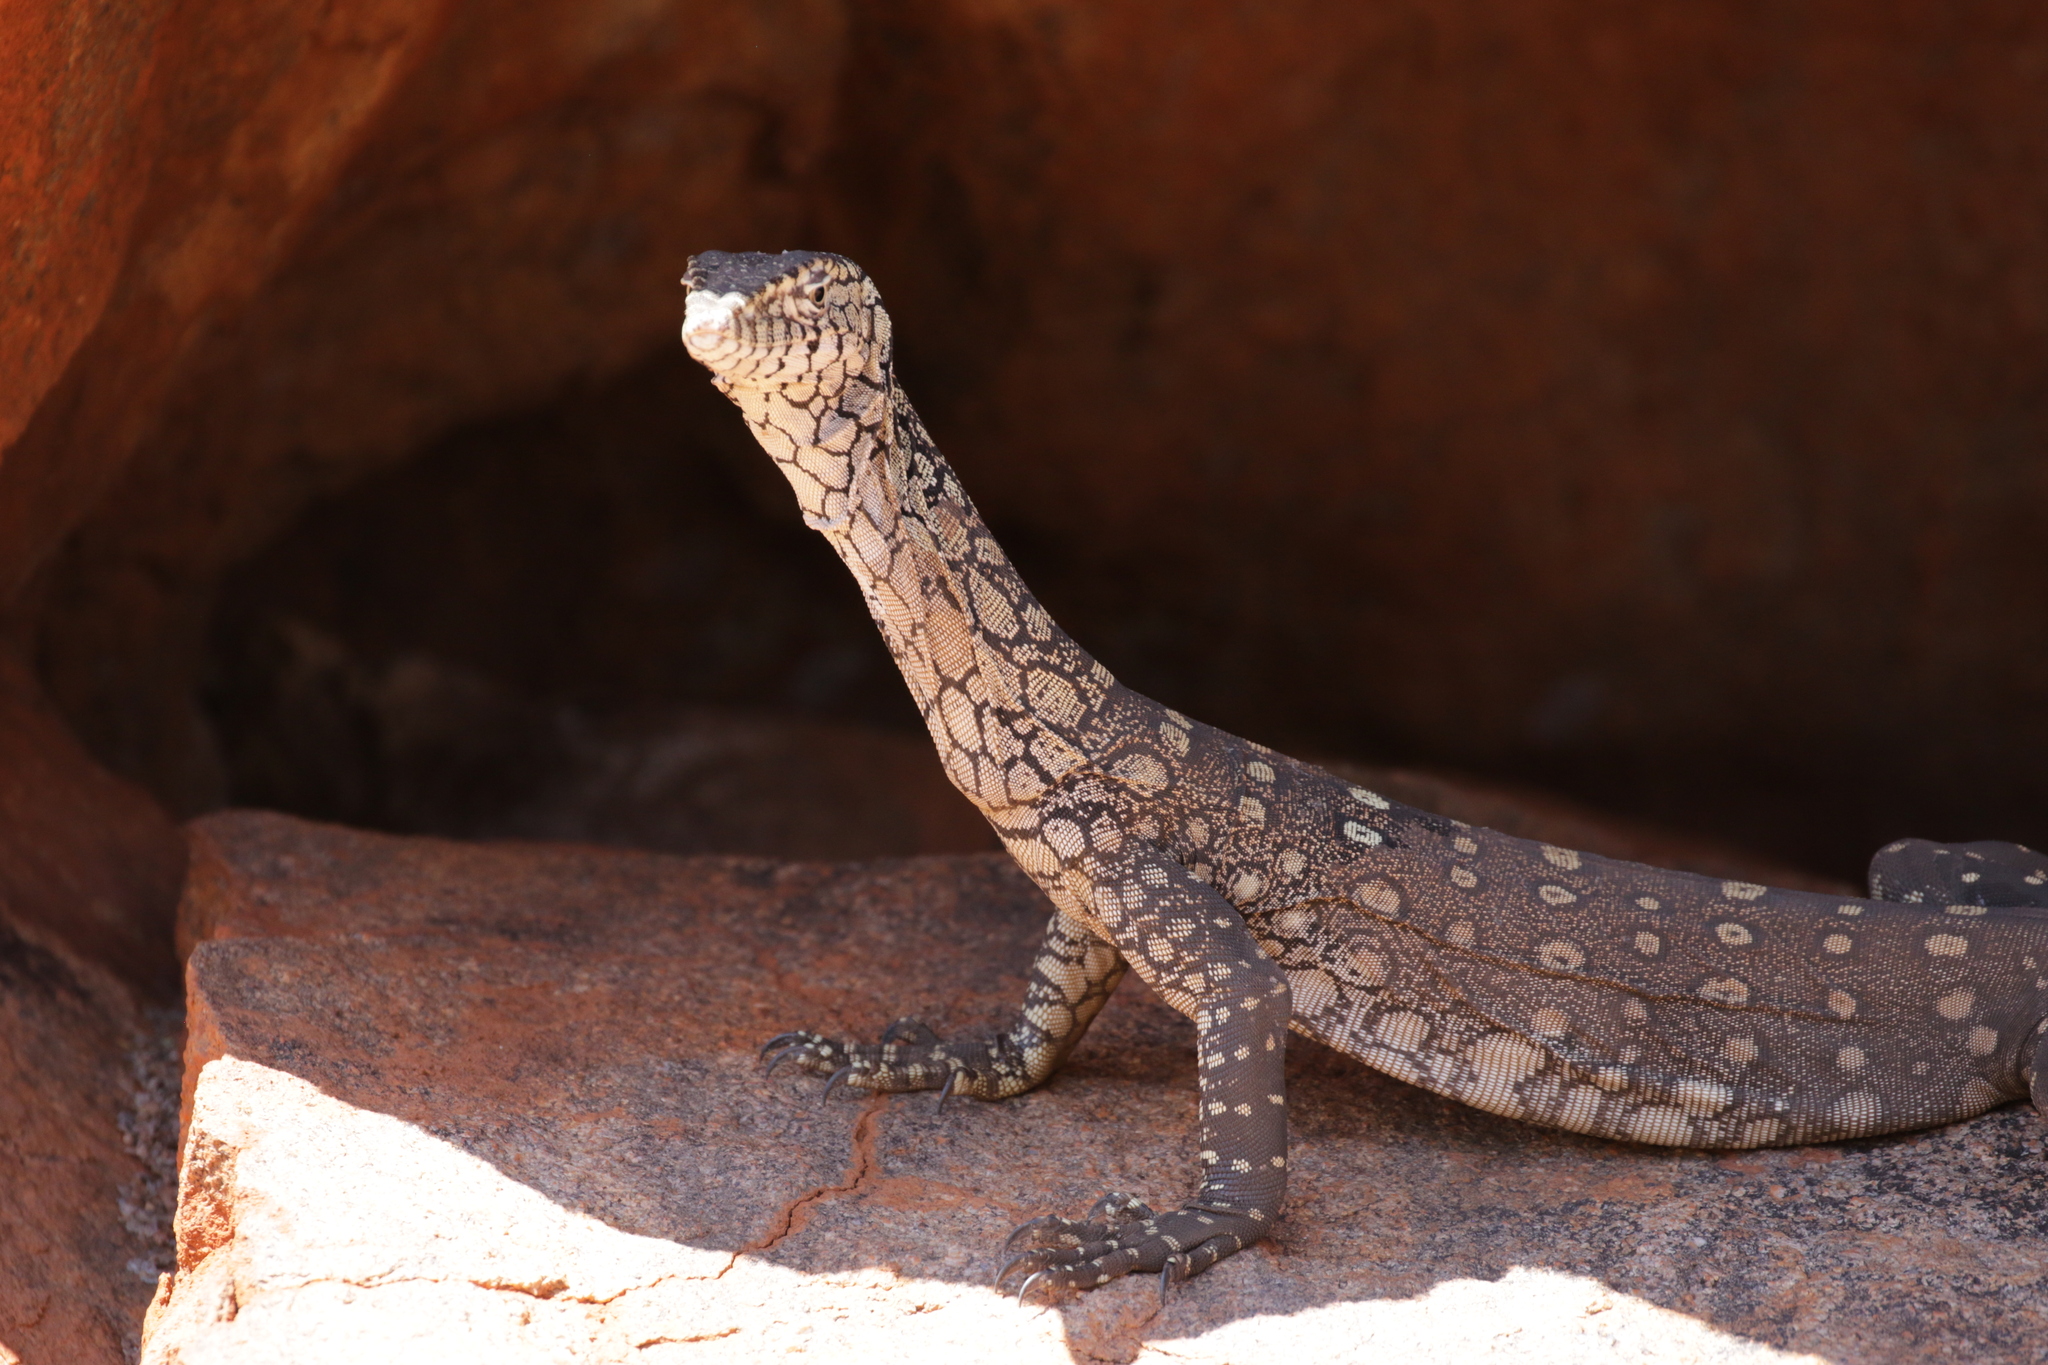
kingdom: Animalia
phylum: Chordata
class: Squamata
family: Varanidae
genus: Varanus
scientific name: Varanus giganteus
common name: Perentie
